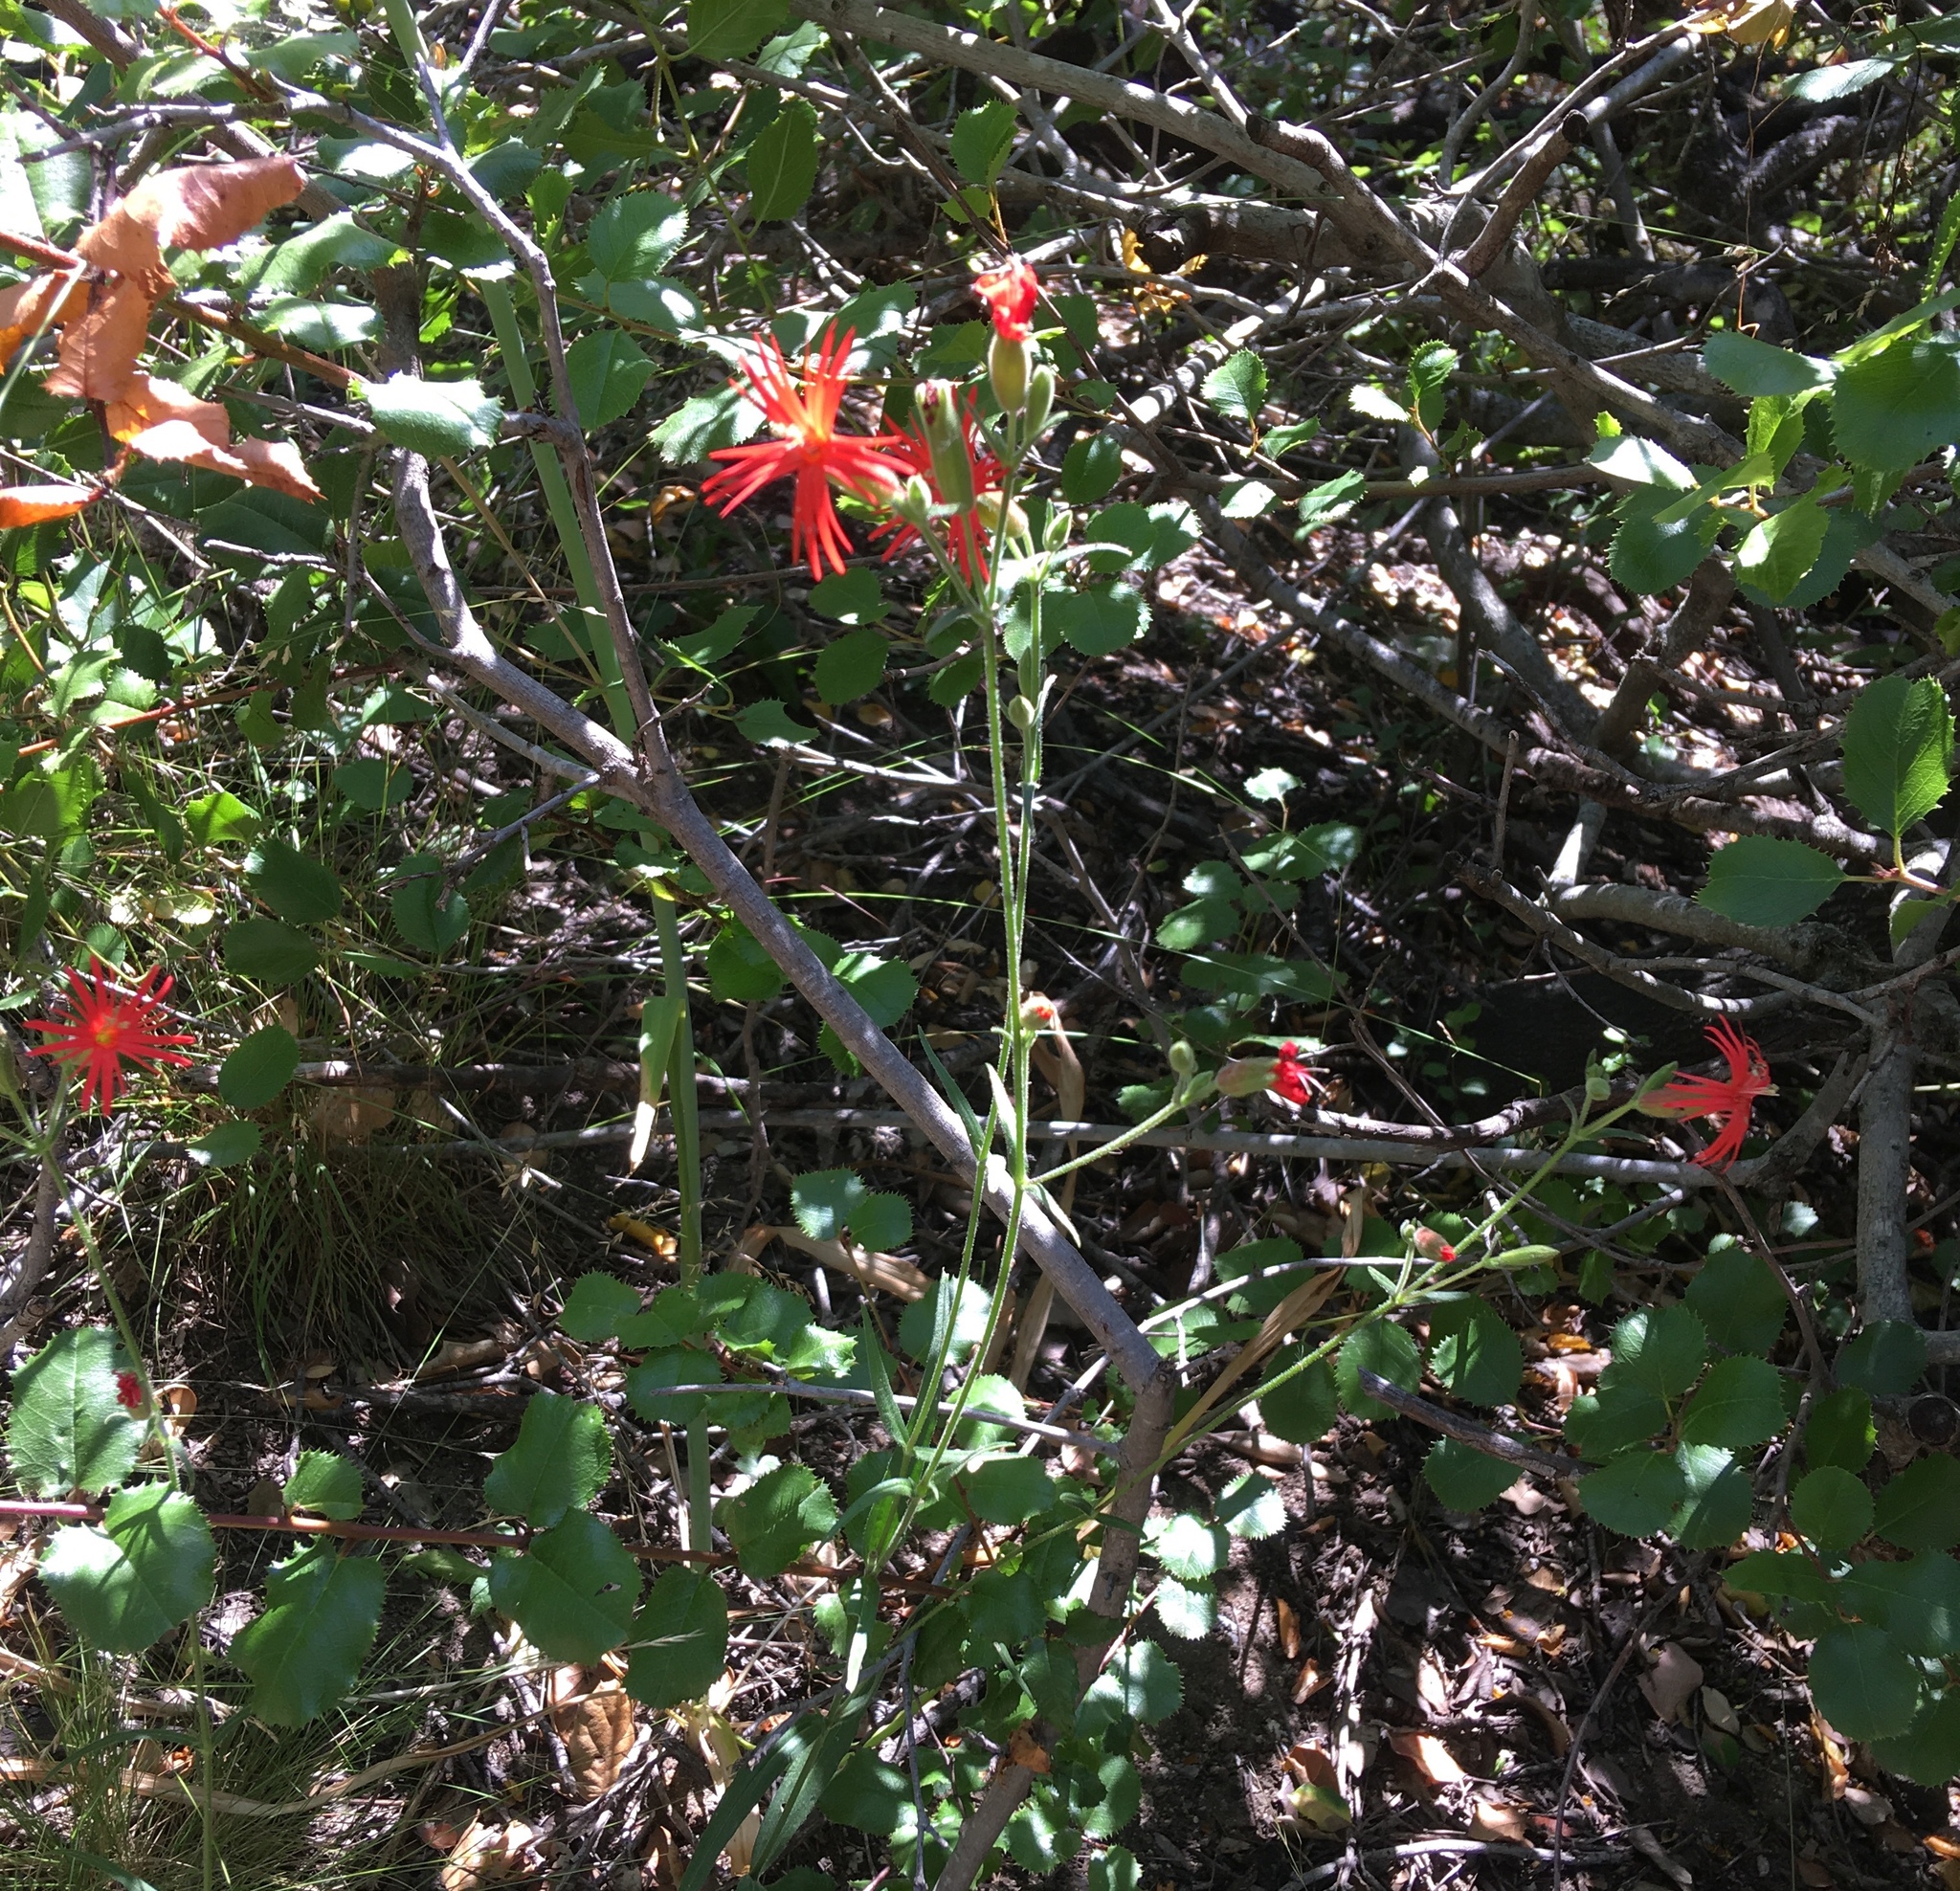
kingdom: Plantae
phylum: Tracheophyta
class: Magnoliopsida
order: Caryophyllales
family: Caryophyllaceae
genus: Silene
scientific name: Silene laciniata
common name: Indian-pink
